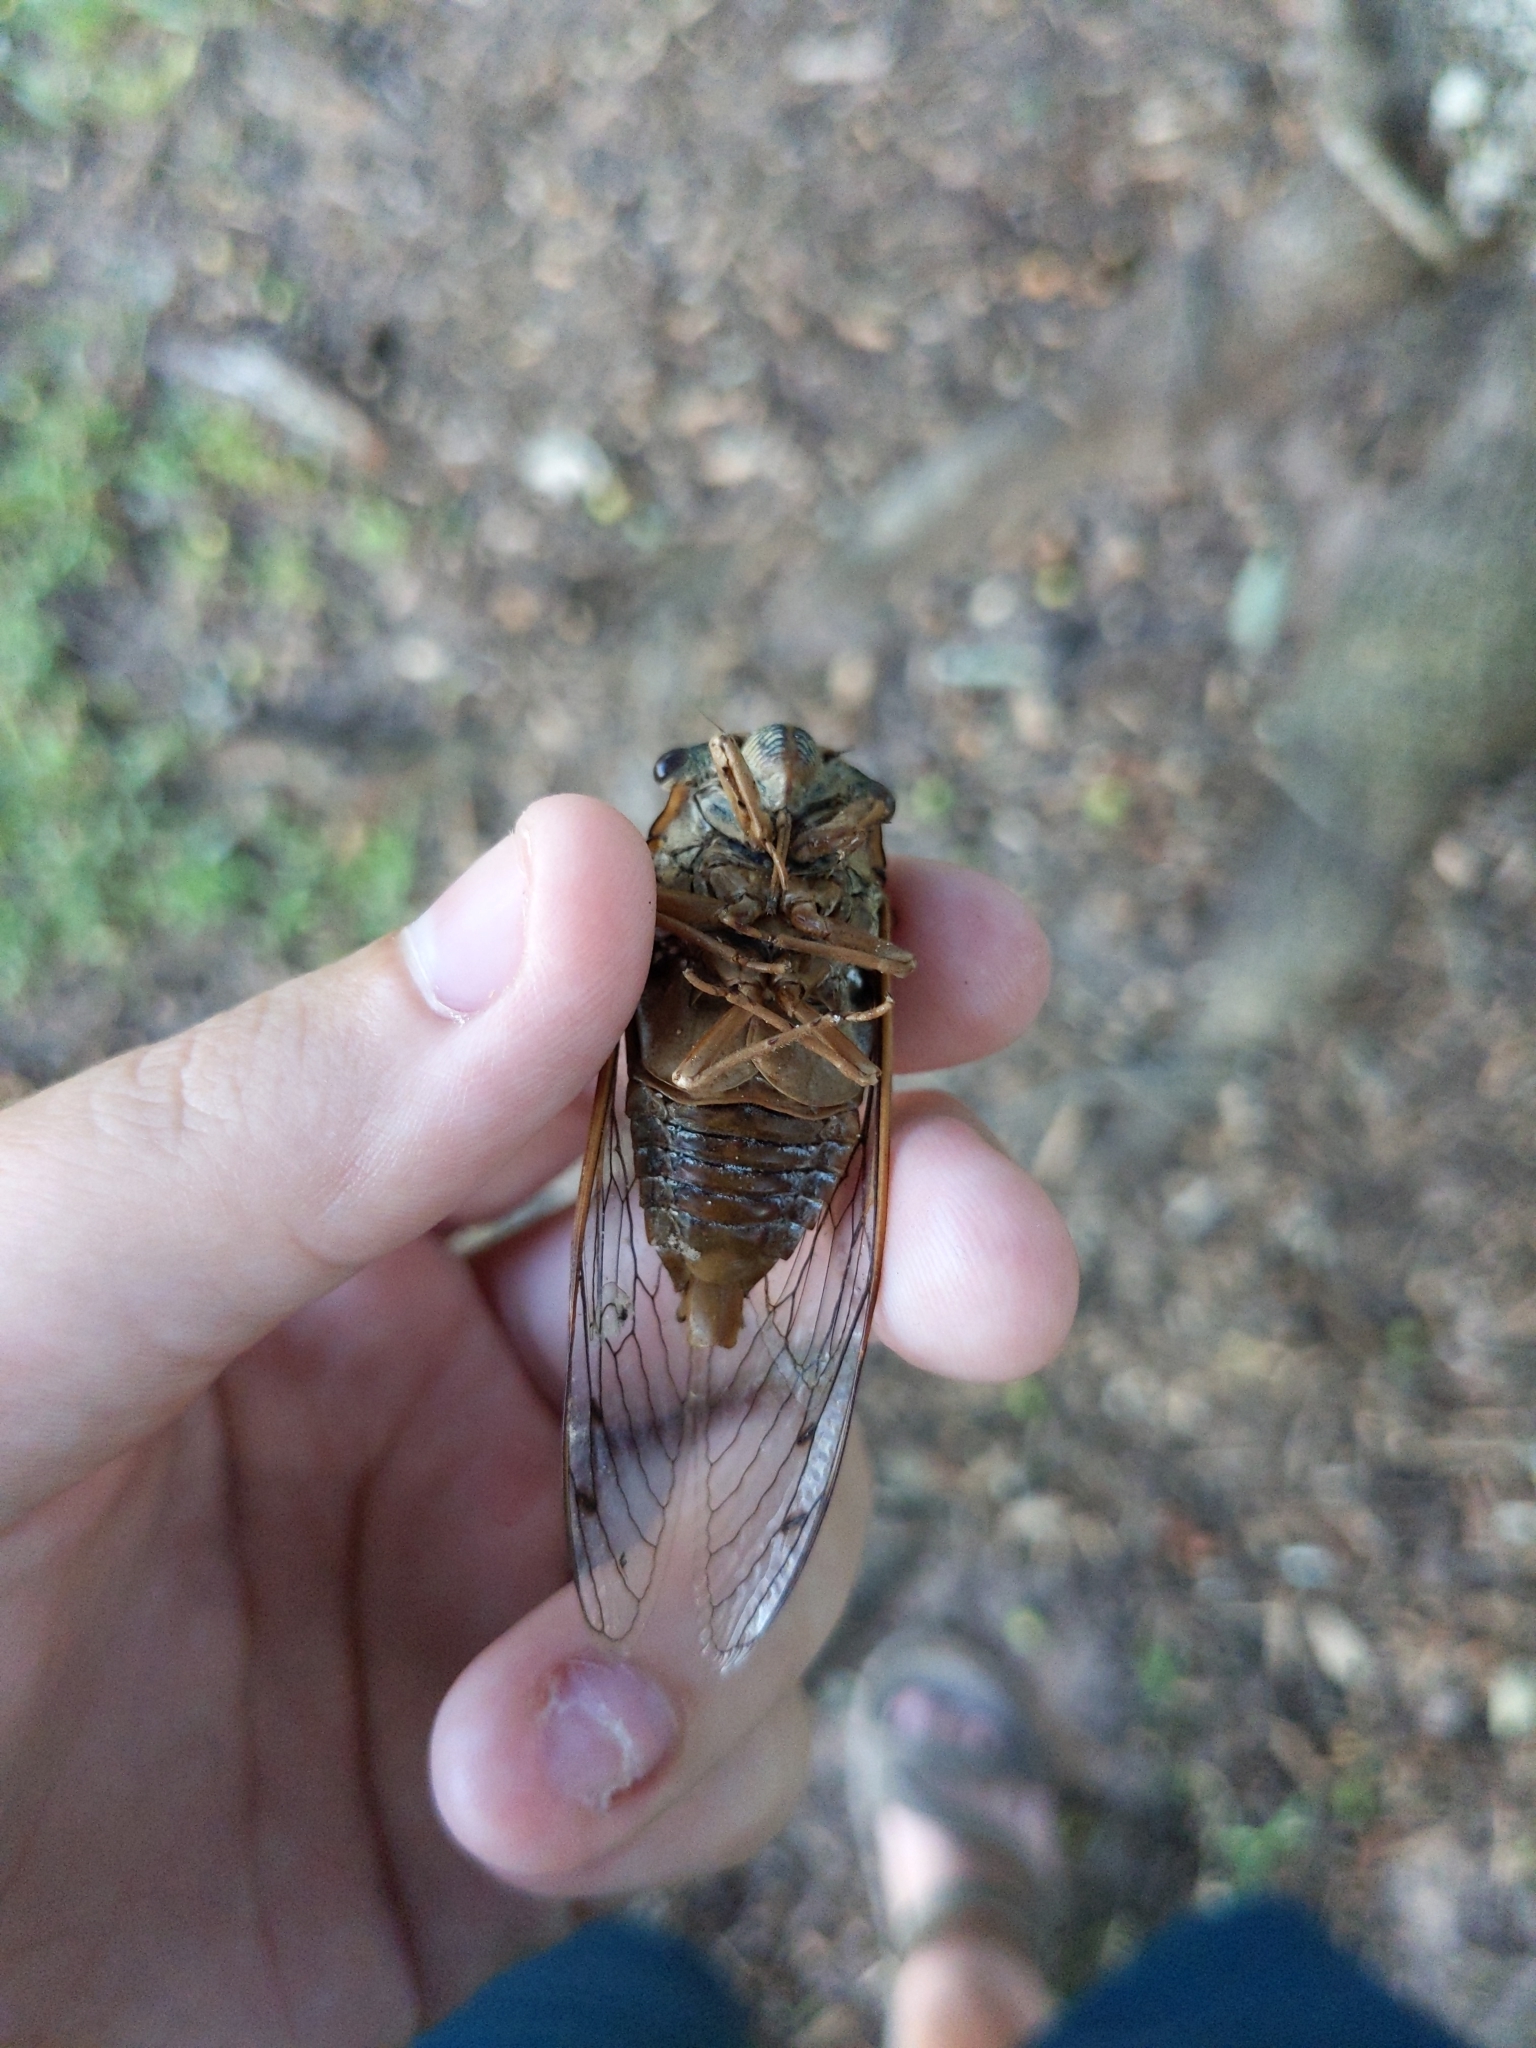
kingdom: Animalia
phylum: Arthropoda
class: Insecta
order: Hemiptera
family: Cicadidae
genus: Megatibicen
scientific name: Megatibicen resh
